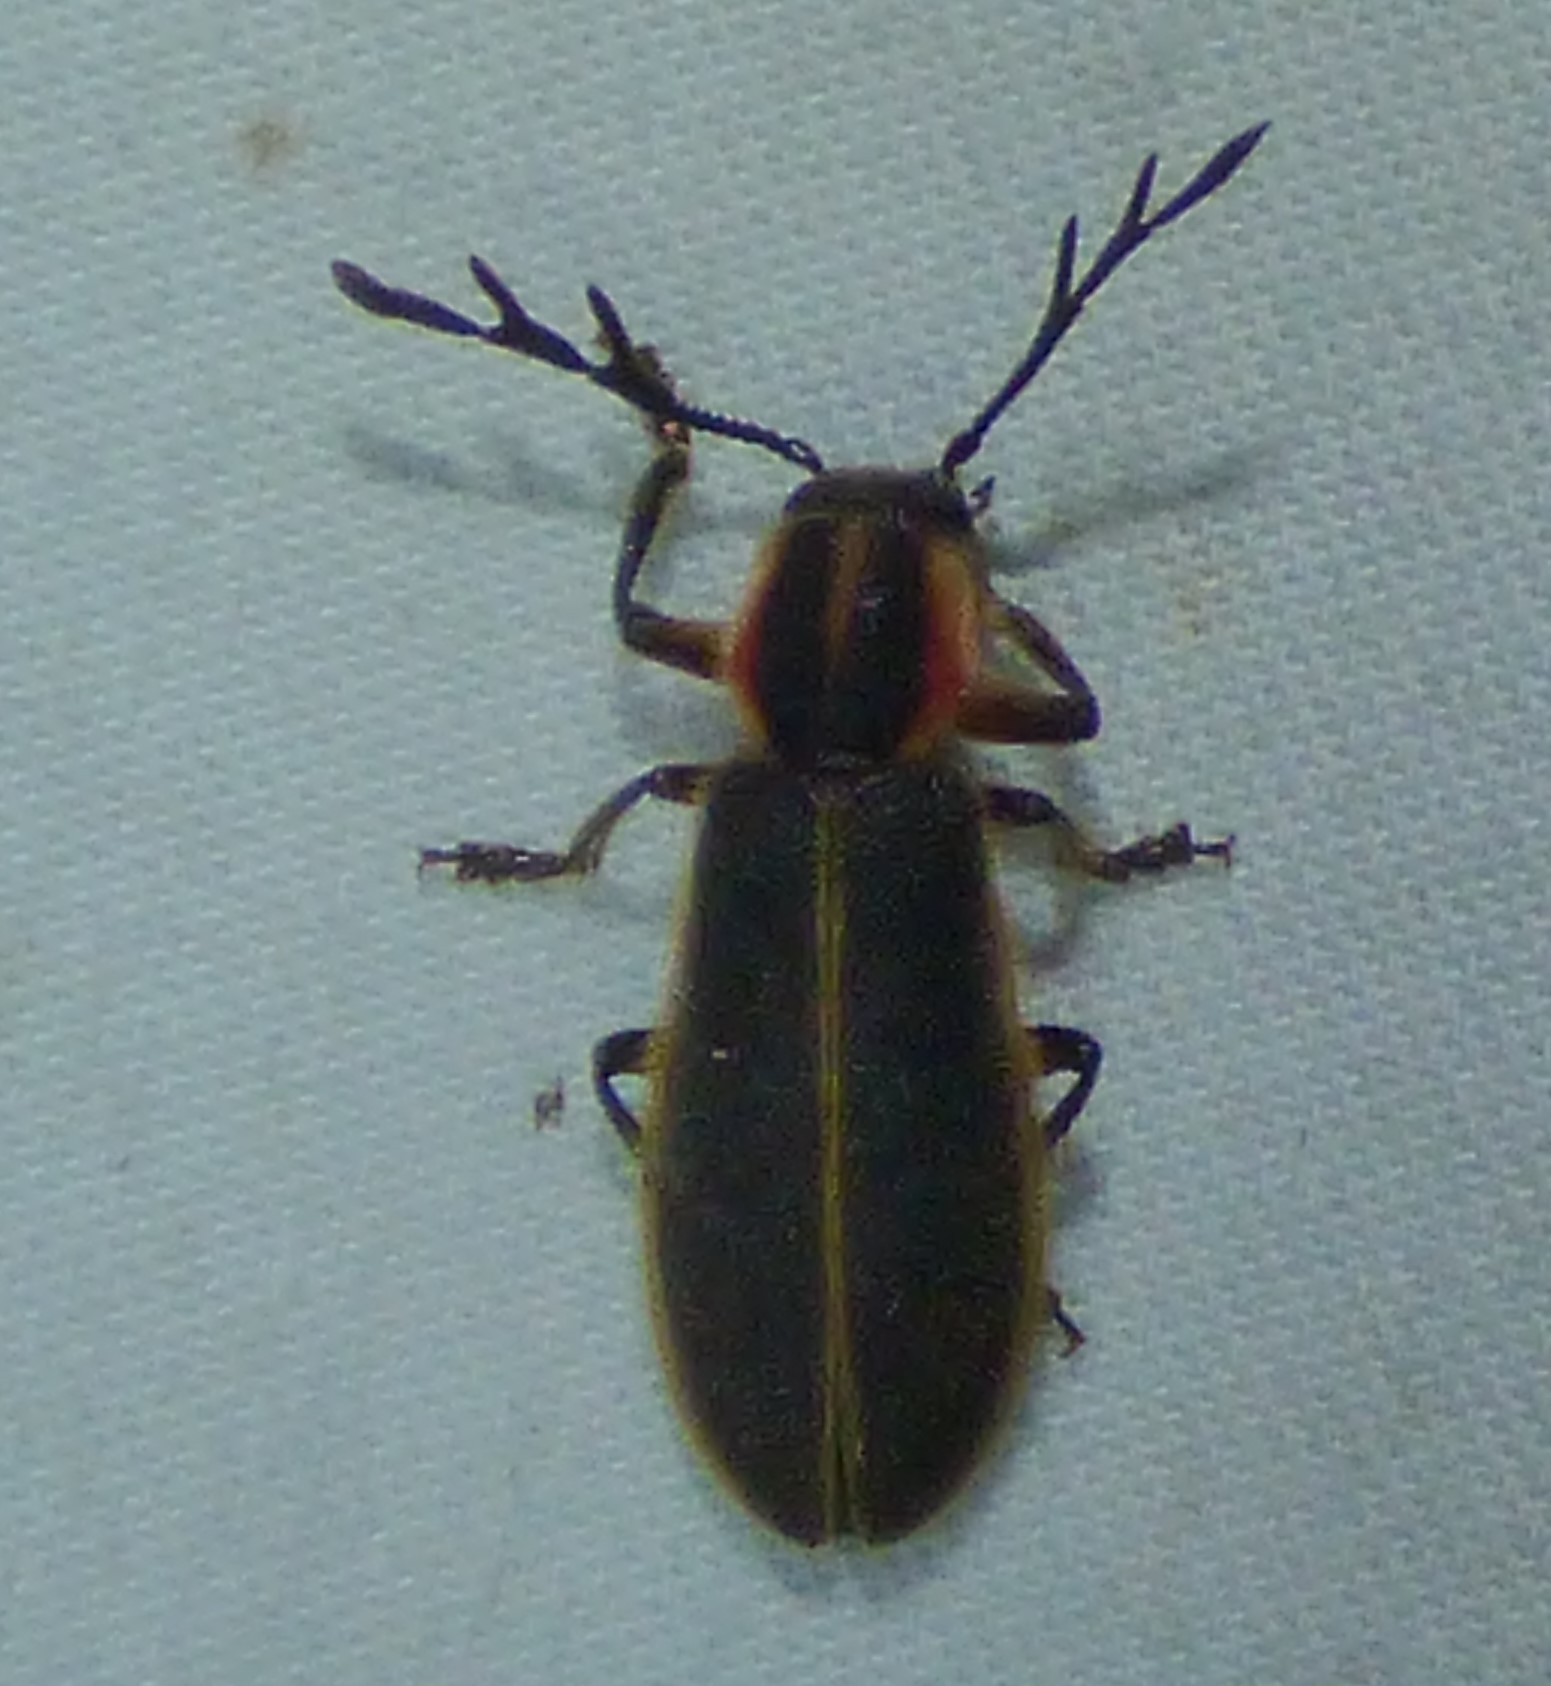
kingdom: Animalia
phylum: Arthropoda
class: Insecta
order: Coleoptera
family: Cleridae
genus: Chariessa
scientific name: Chariessa pilosa
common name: Pilose checkered beetle
